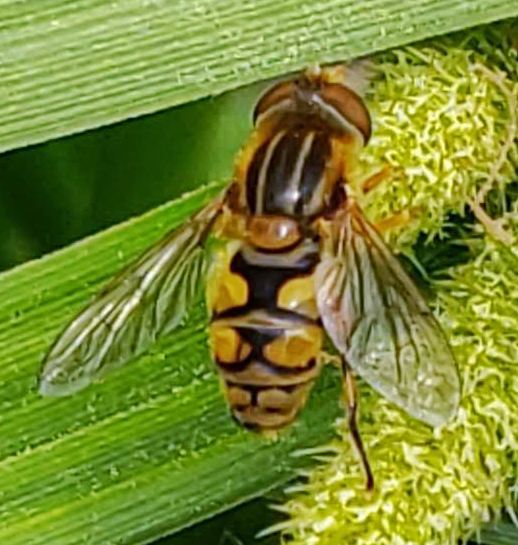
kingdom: Animalia
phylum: Arthropoda
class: Insecta
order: Diptera
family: Syrphidae
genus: Parhelophilus
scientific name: Parhelophilus laetus
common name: Common bog fly
